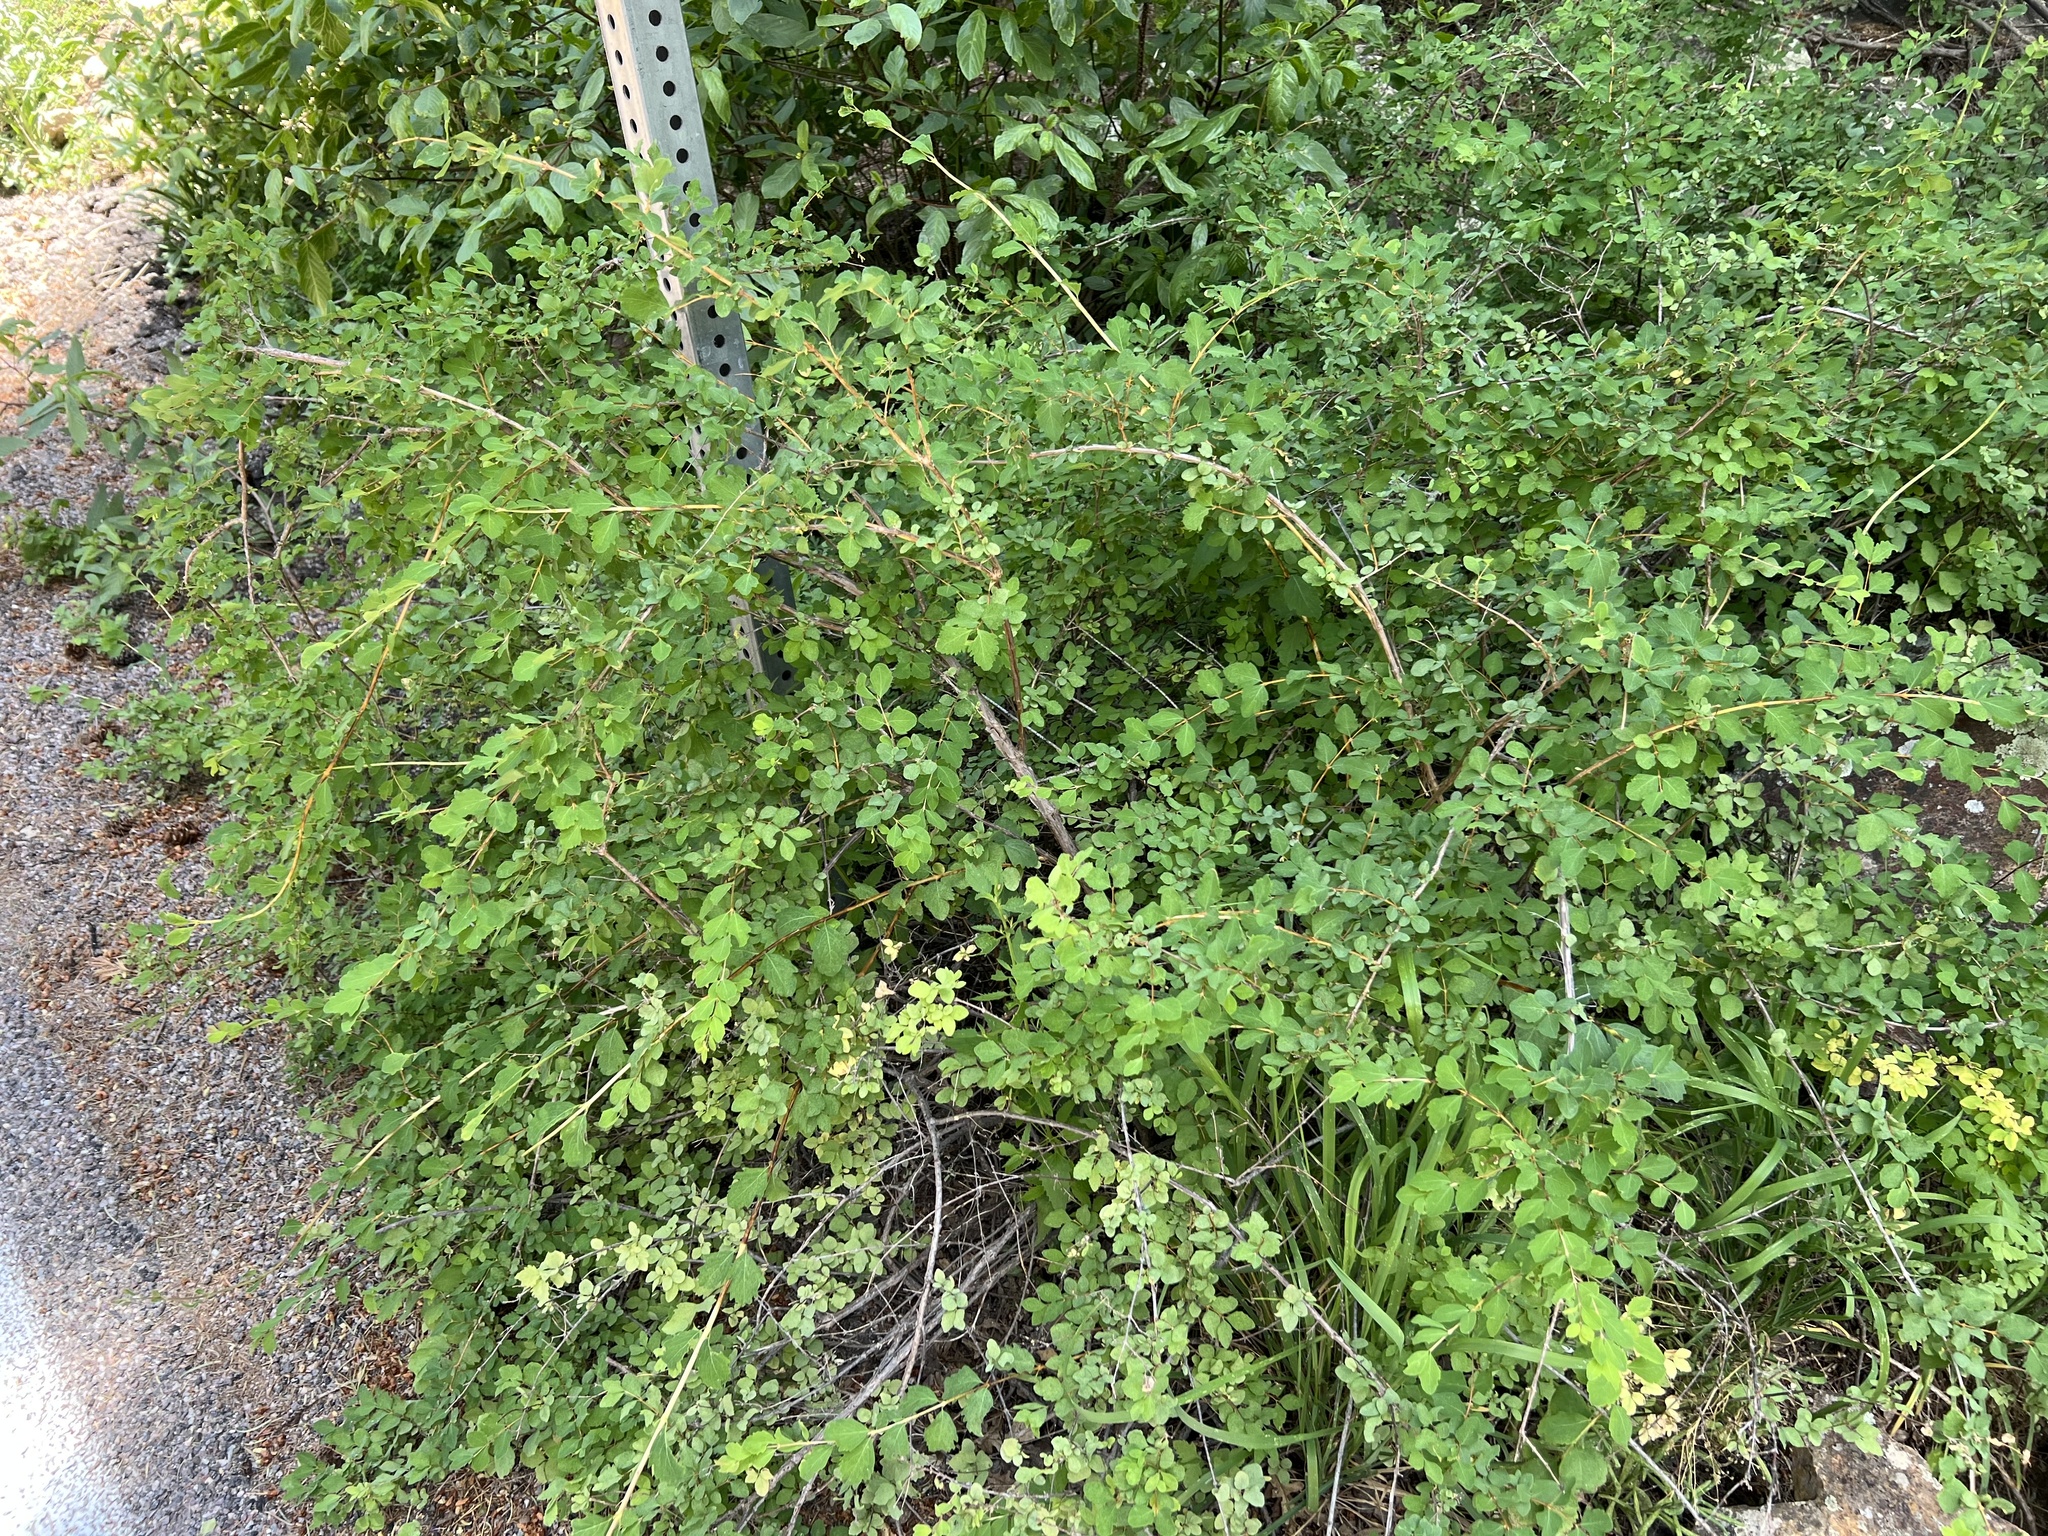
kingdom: Plantae
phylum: Tracheophyta
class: Magnoliopsida
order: Rosales
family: Rosaceae
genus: Cercocarpus
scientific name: Cercocarpus montanus
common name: Alder-leaf cercocarpus
